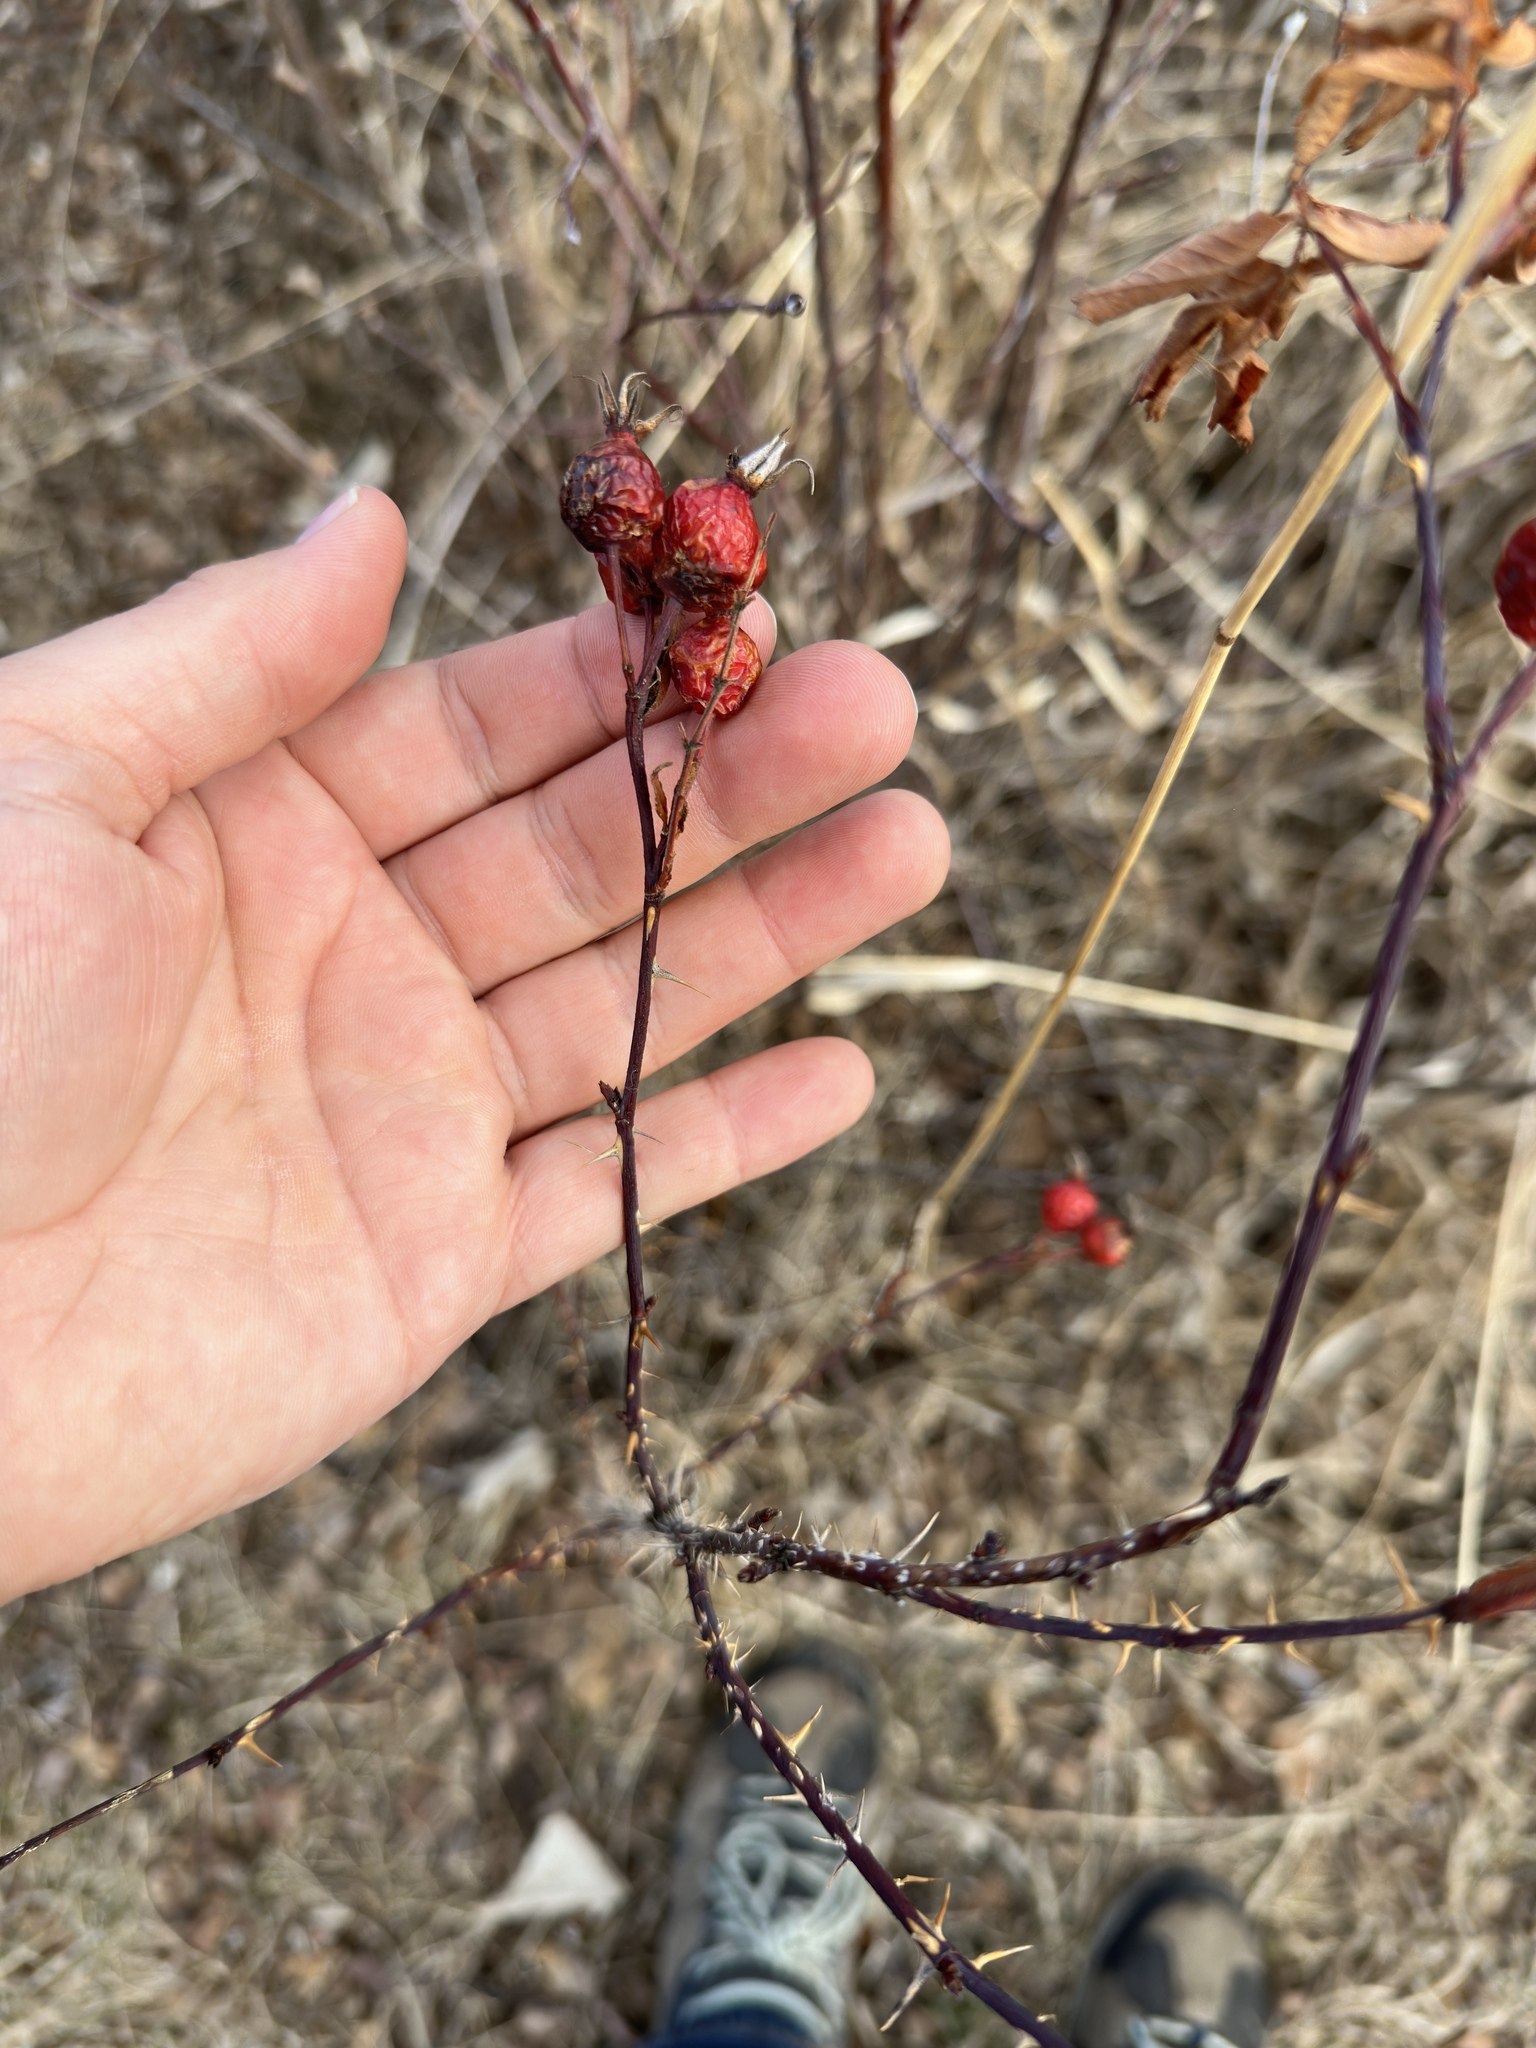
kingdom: Plantae
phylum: Tracheophyta
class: Magnoliopsida
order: Rosales
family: Rosaceae
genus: Rosa
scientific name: Rosa woodsii
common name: Woods's rose
